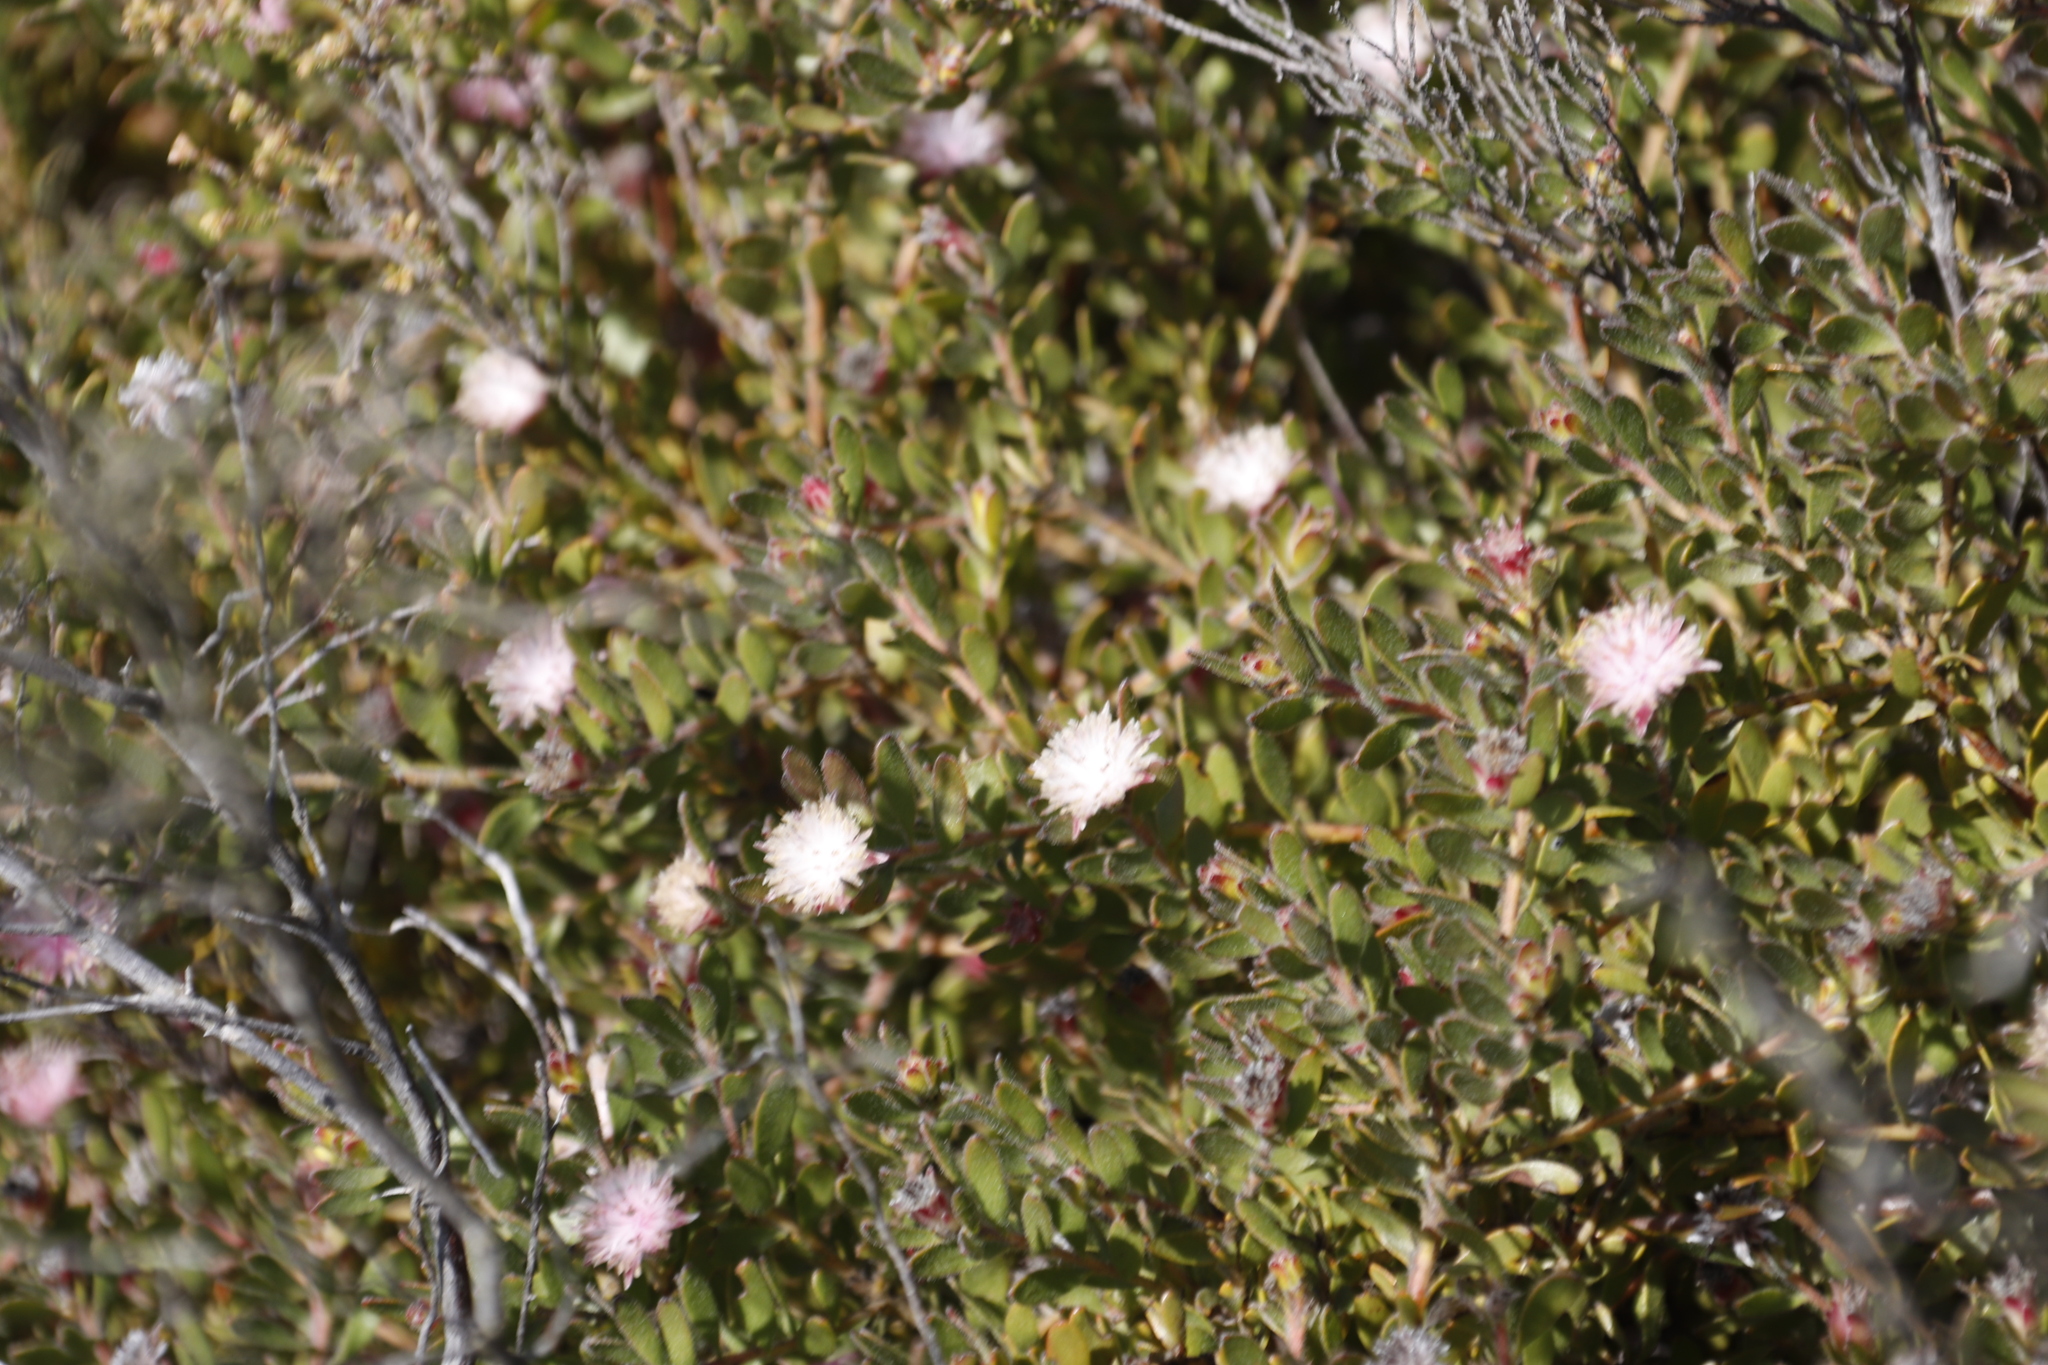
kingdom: Plantae
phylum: Tracheophyta
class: Magnoliopsida
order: Proteales
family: Proteaceae
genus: Diastella
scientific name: Diastella divaricata
